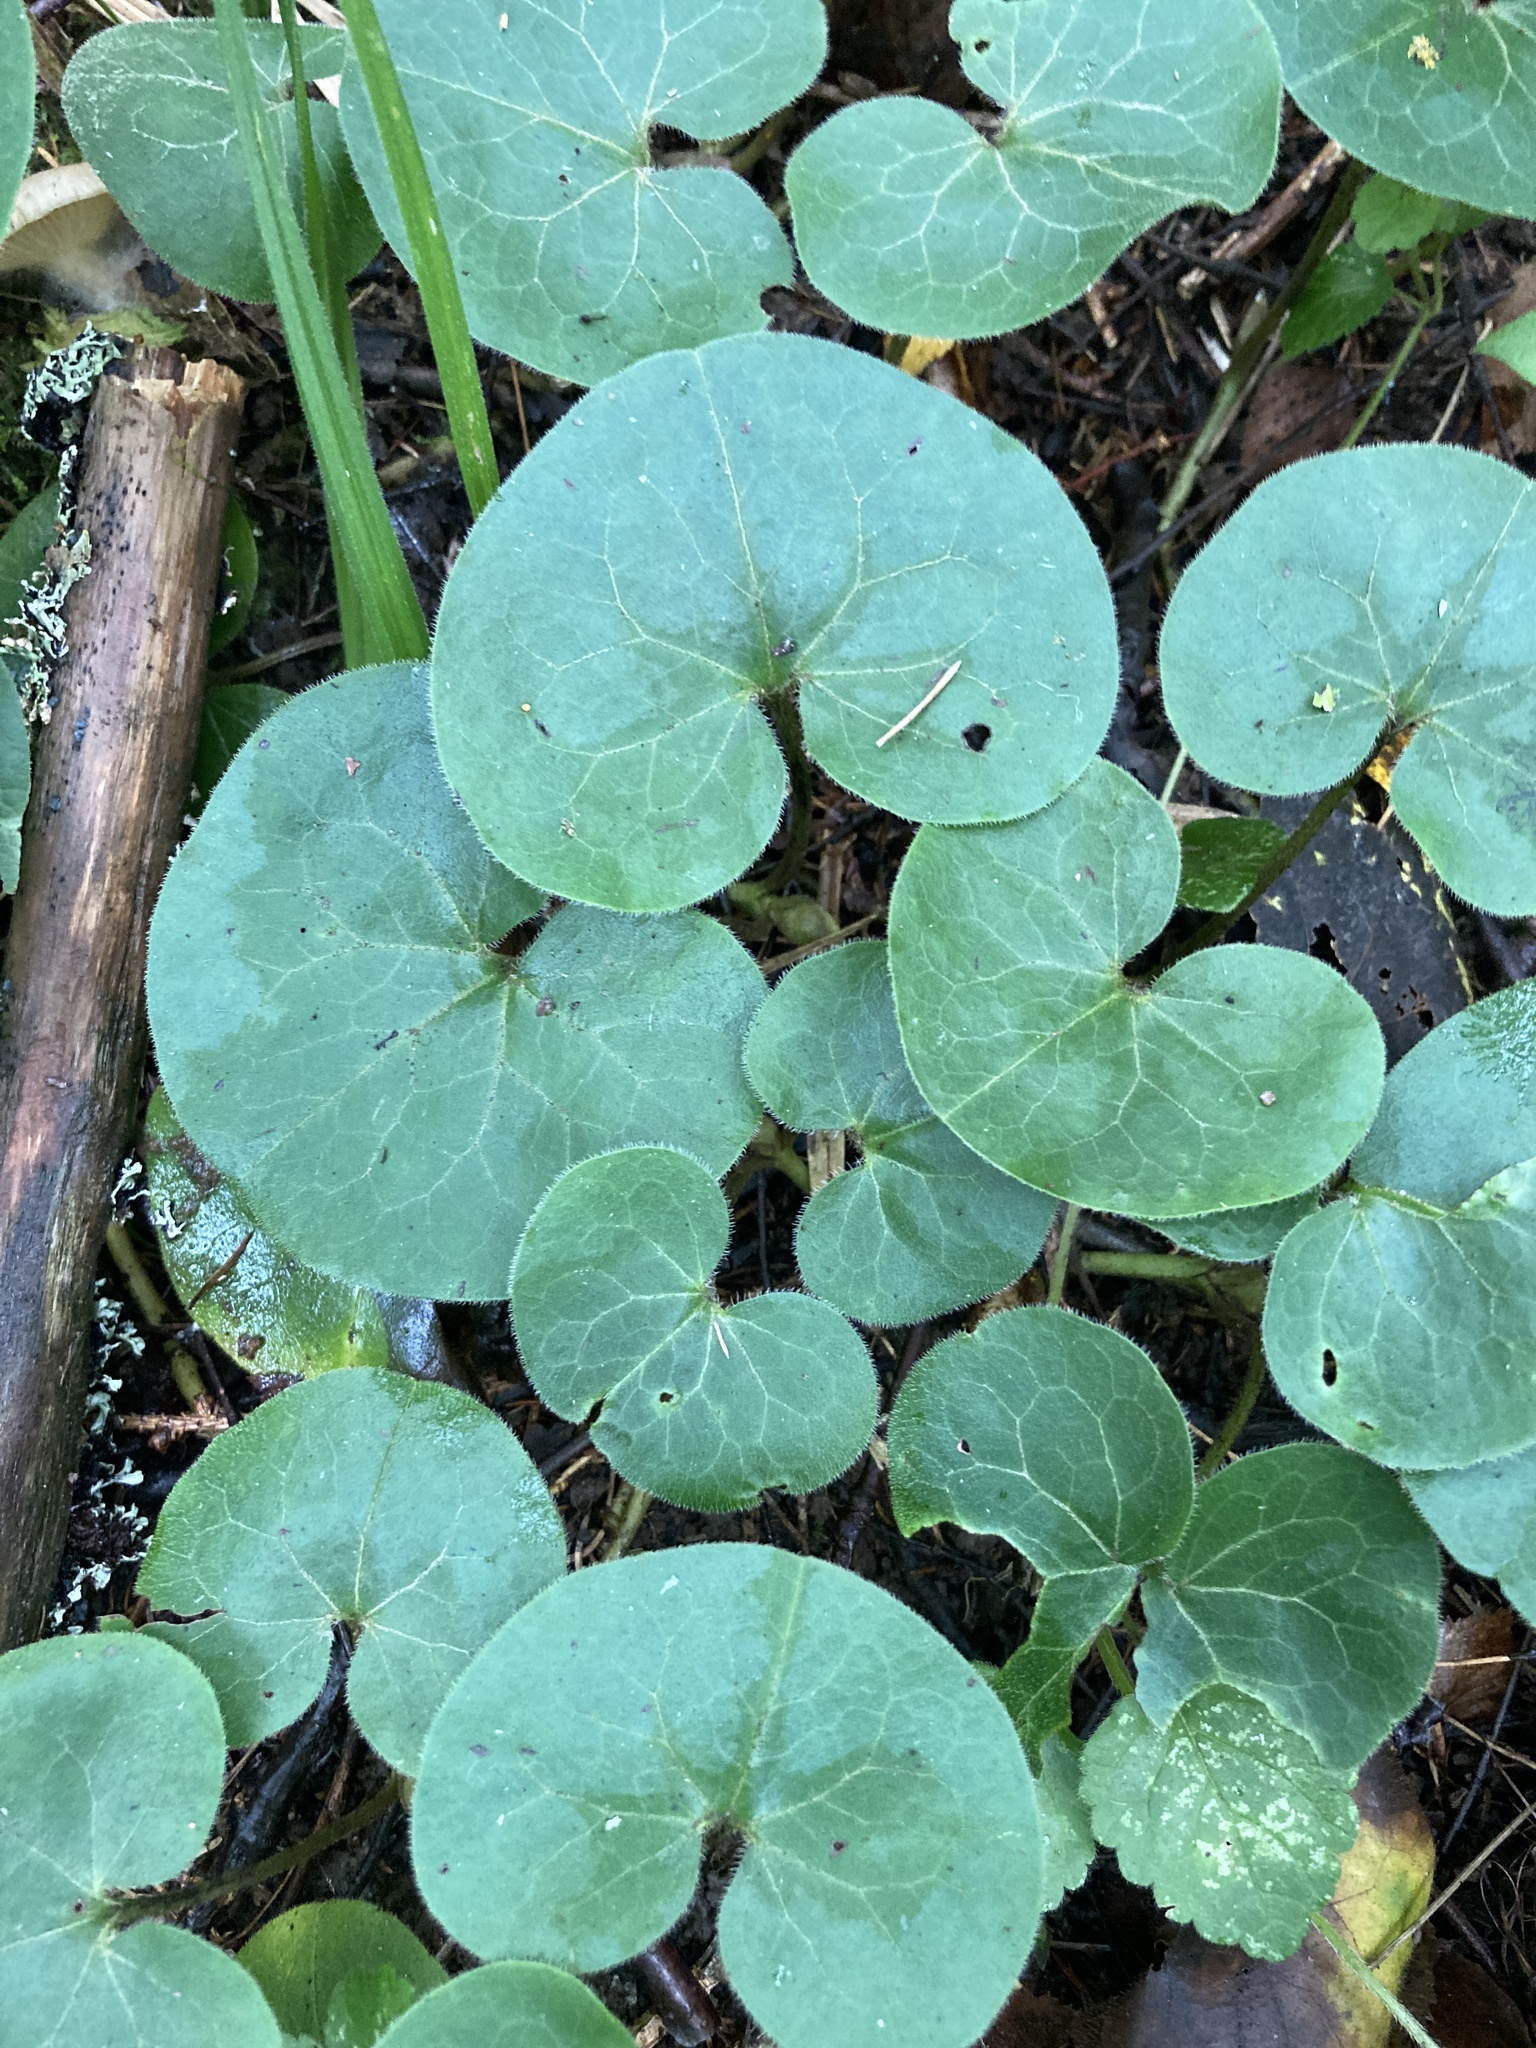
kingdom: Plantae
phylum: Tracheophyta
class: Magnoliopsida
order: Piperales
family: Aristolochiaceae
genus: Asarum
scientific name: Asarum europaeum
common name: Asarabacca
